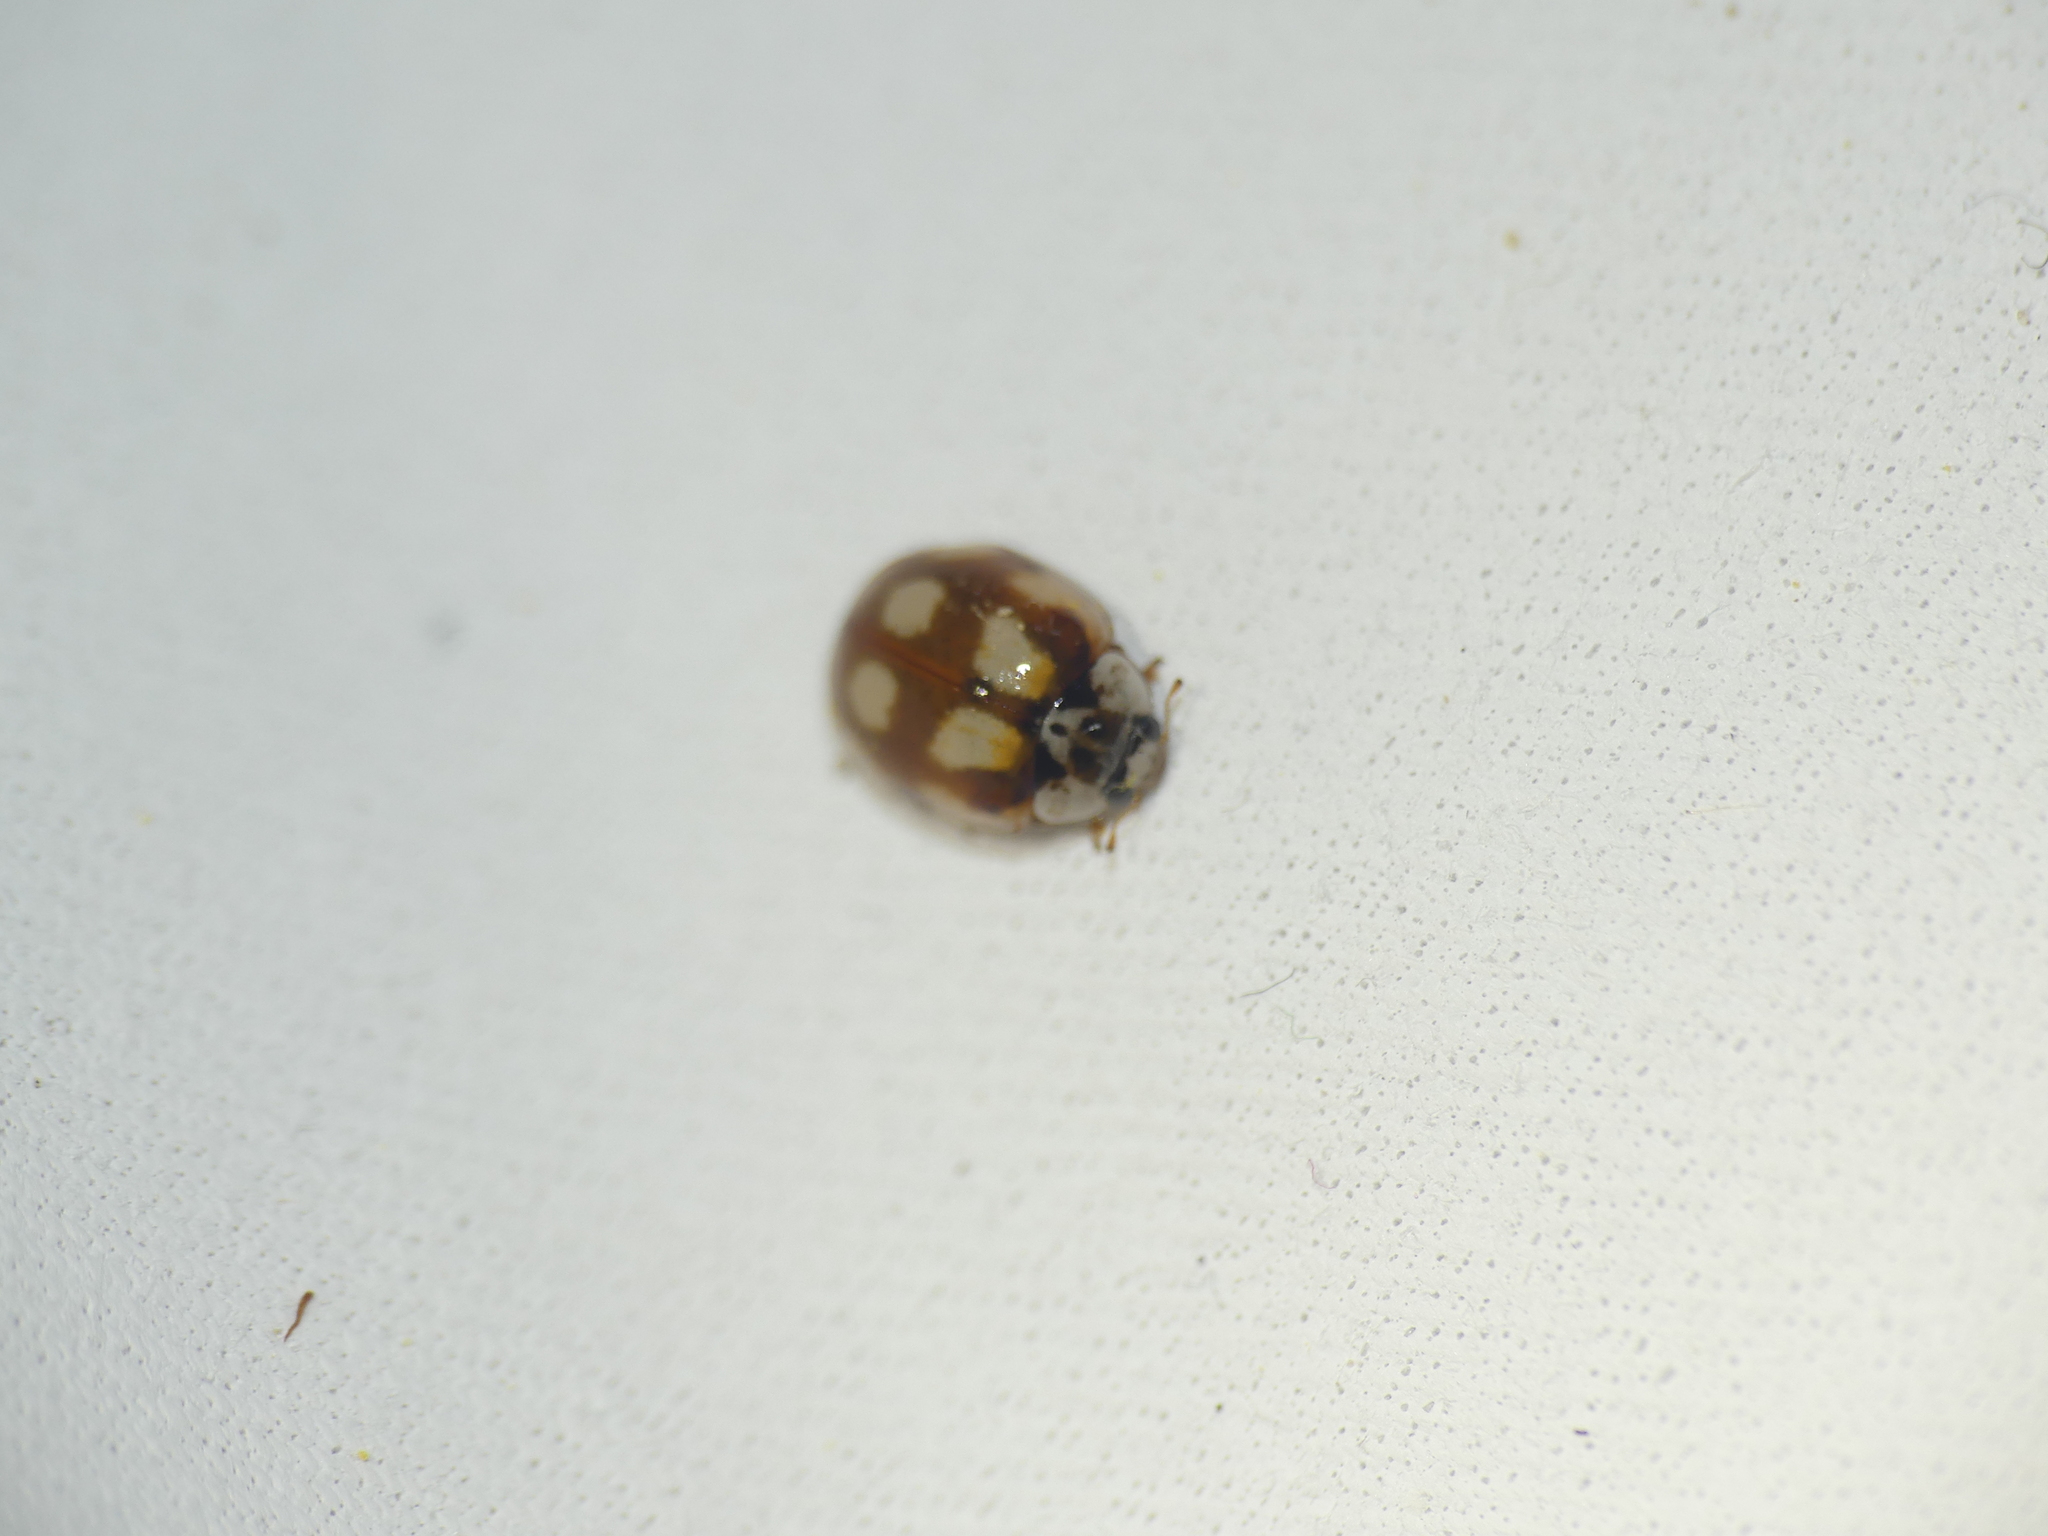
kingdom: Animalia
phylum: Arthropoda
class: Insecta
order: Coleoptera
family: Coccinellidae
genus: Adalia
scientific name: Adalia decempunctata
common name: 10-spot ladybird
